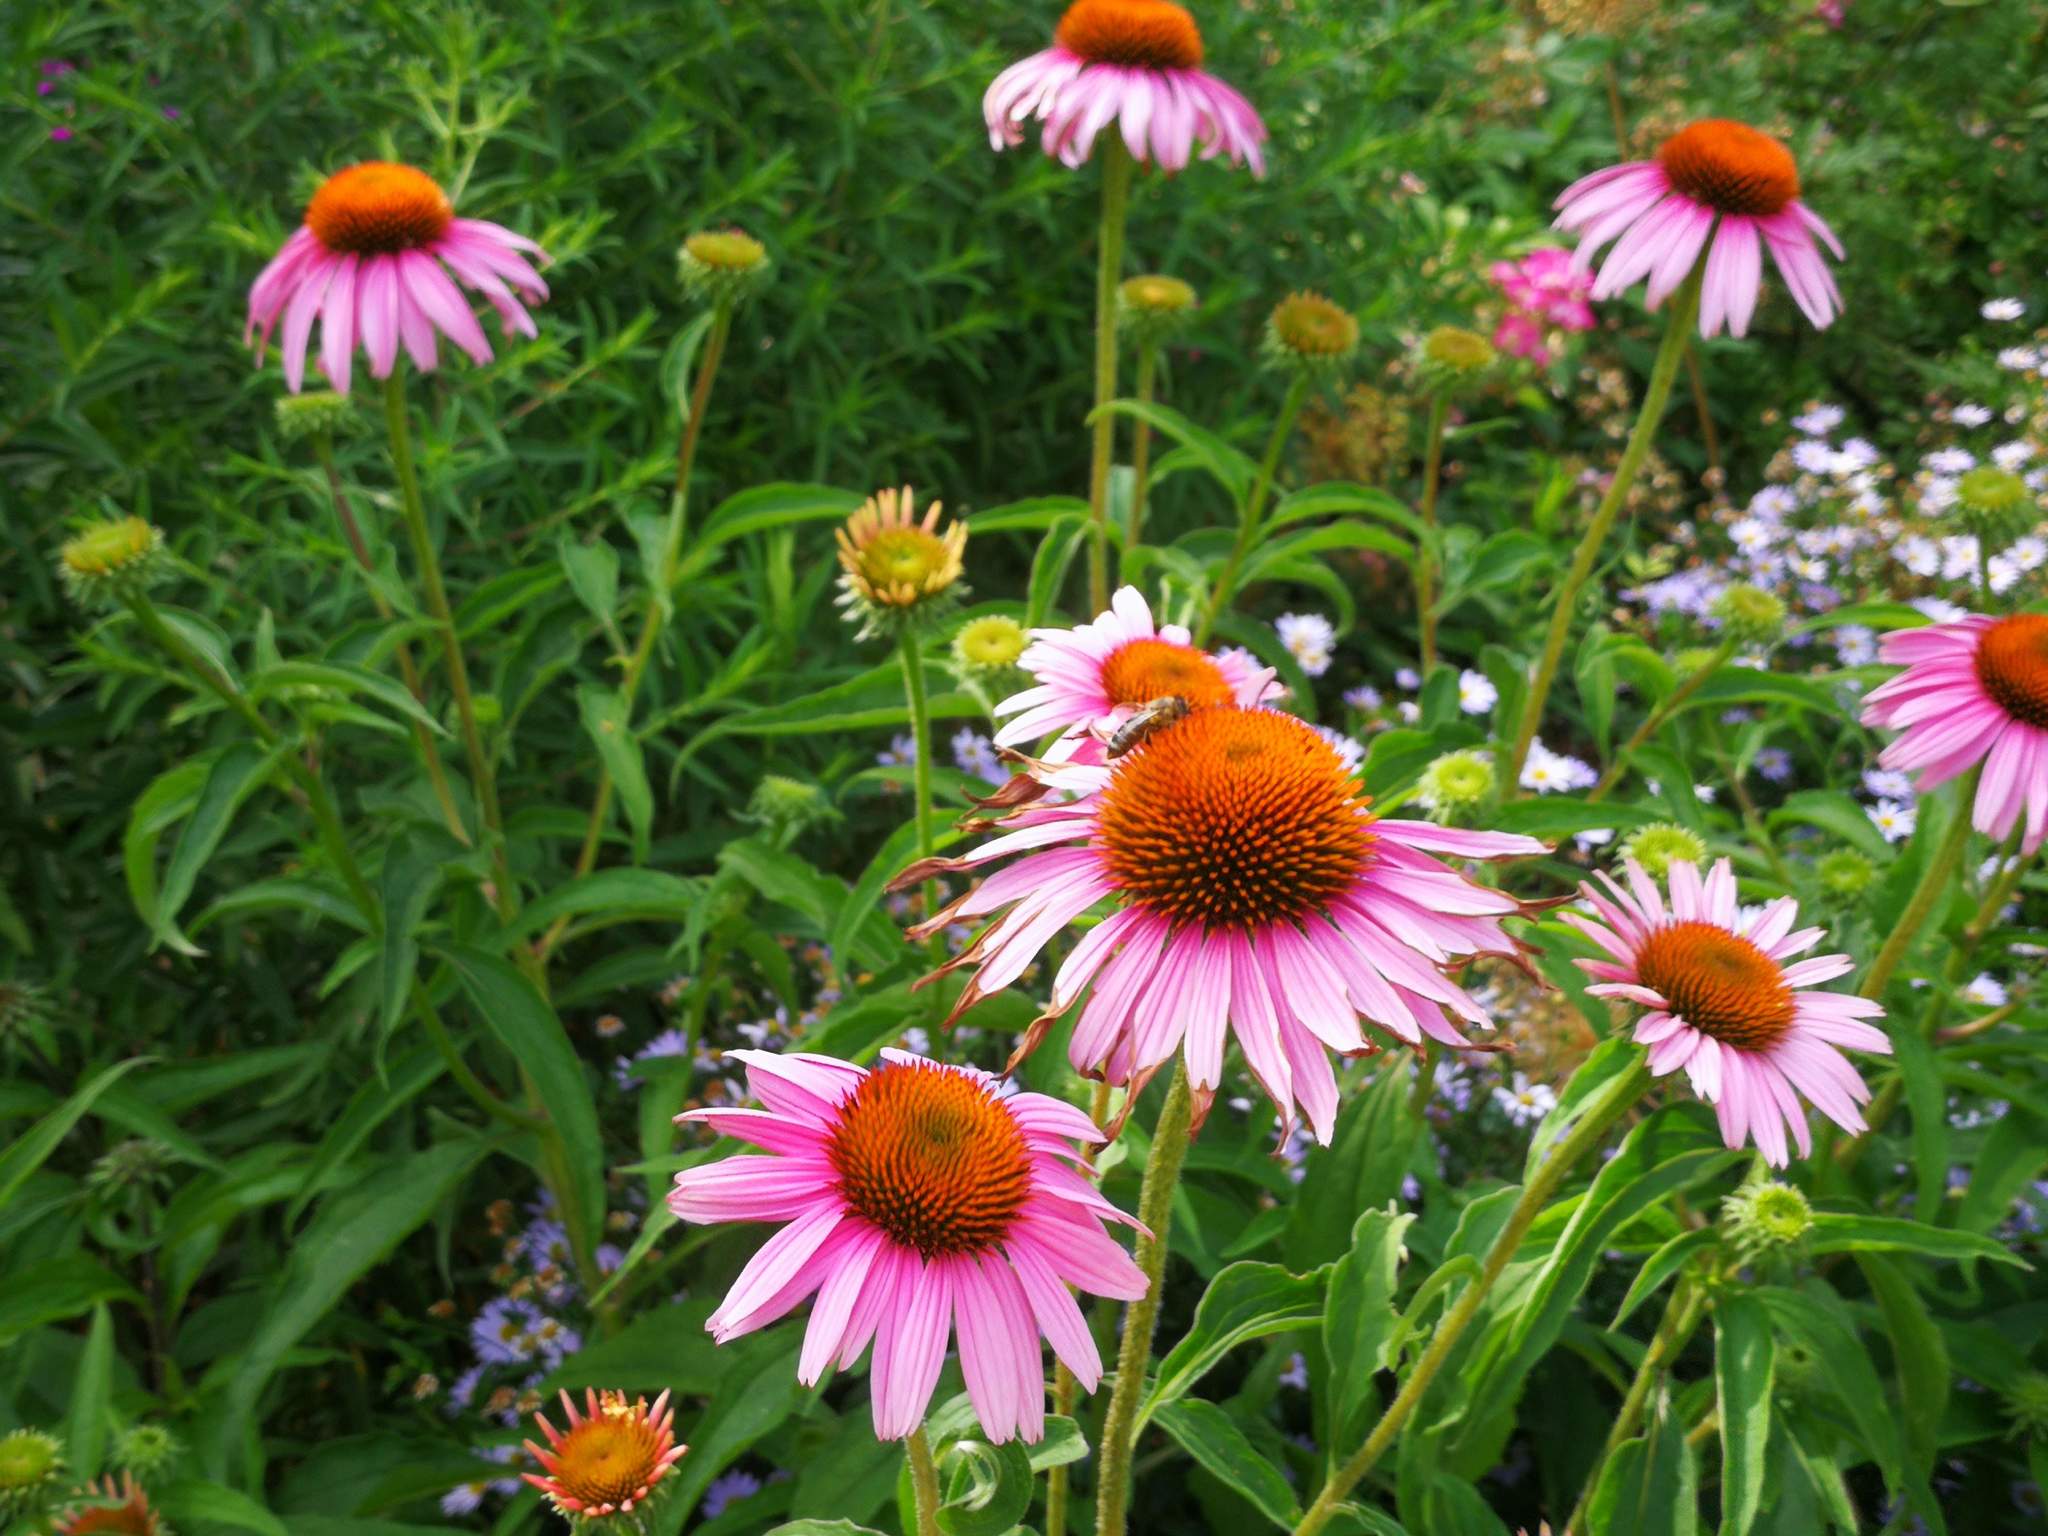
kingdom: Animalia
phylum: Arthropoda
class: Insecta
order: Hymenoptera
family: Apidae
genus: Apis
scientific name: Apis mellifera
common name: Honey bee
